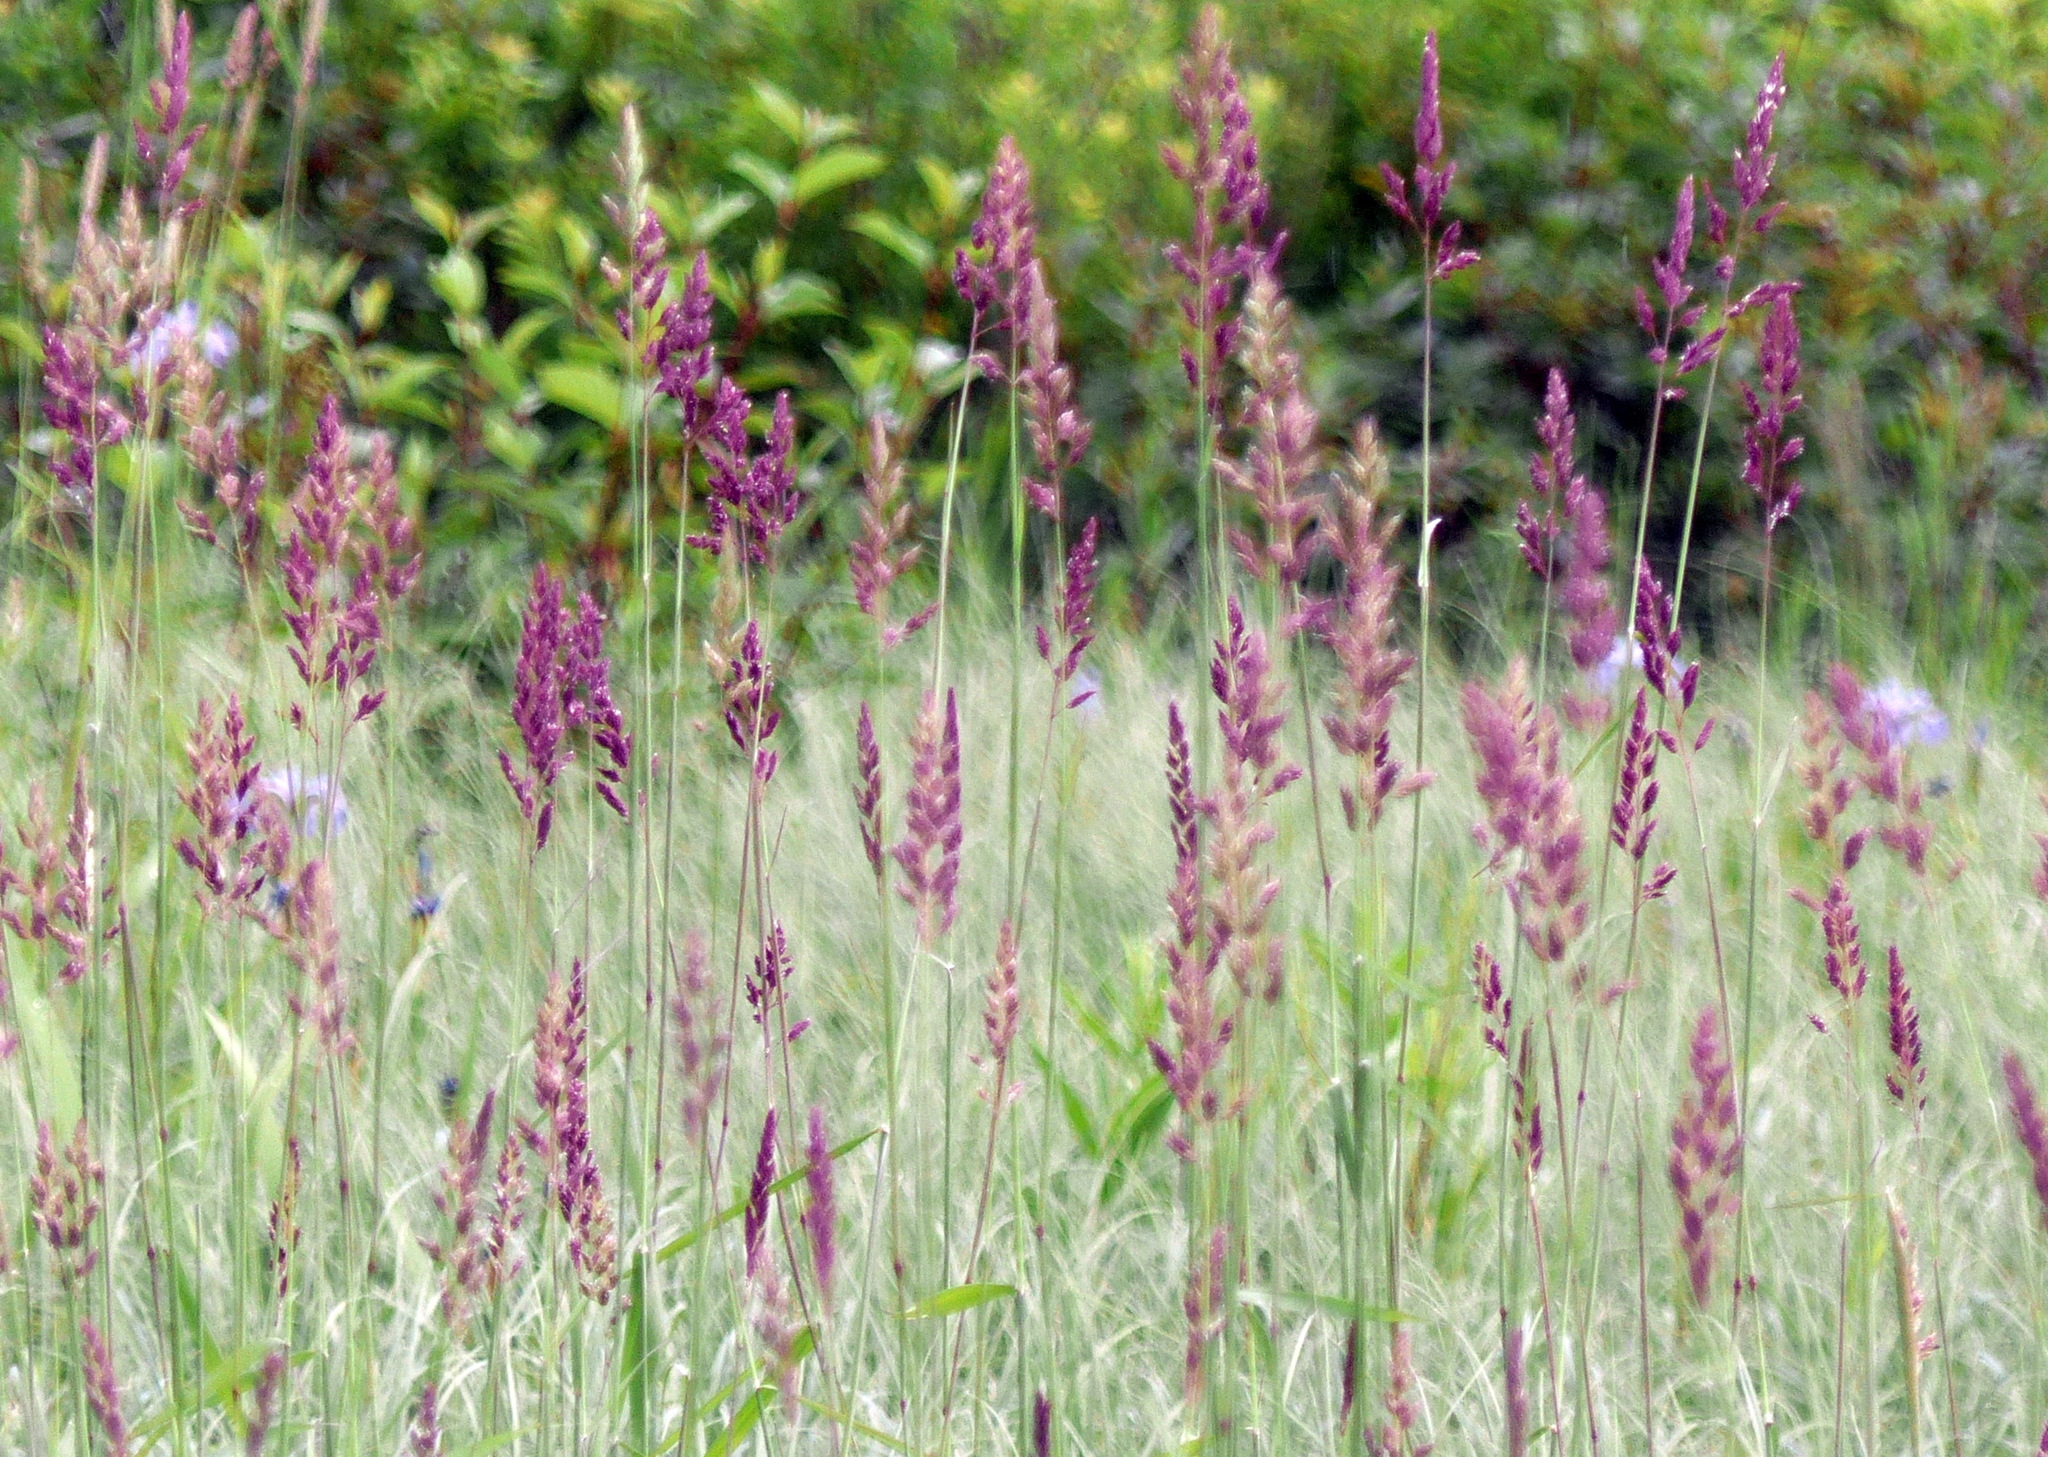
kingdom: Plantae
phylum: Tracheophyta
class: Liliopsida
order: Poales
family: Poaceae
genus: Phalaris
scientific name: Phalaris arundinacea
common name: Reed canary-grass
